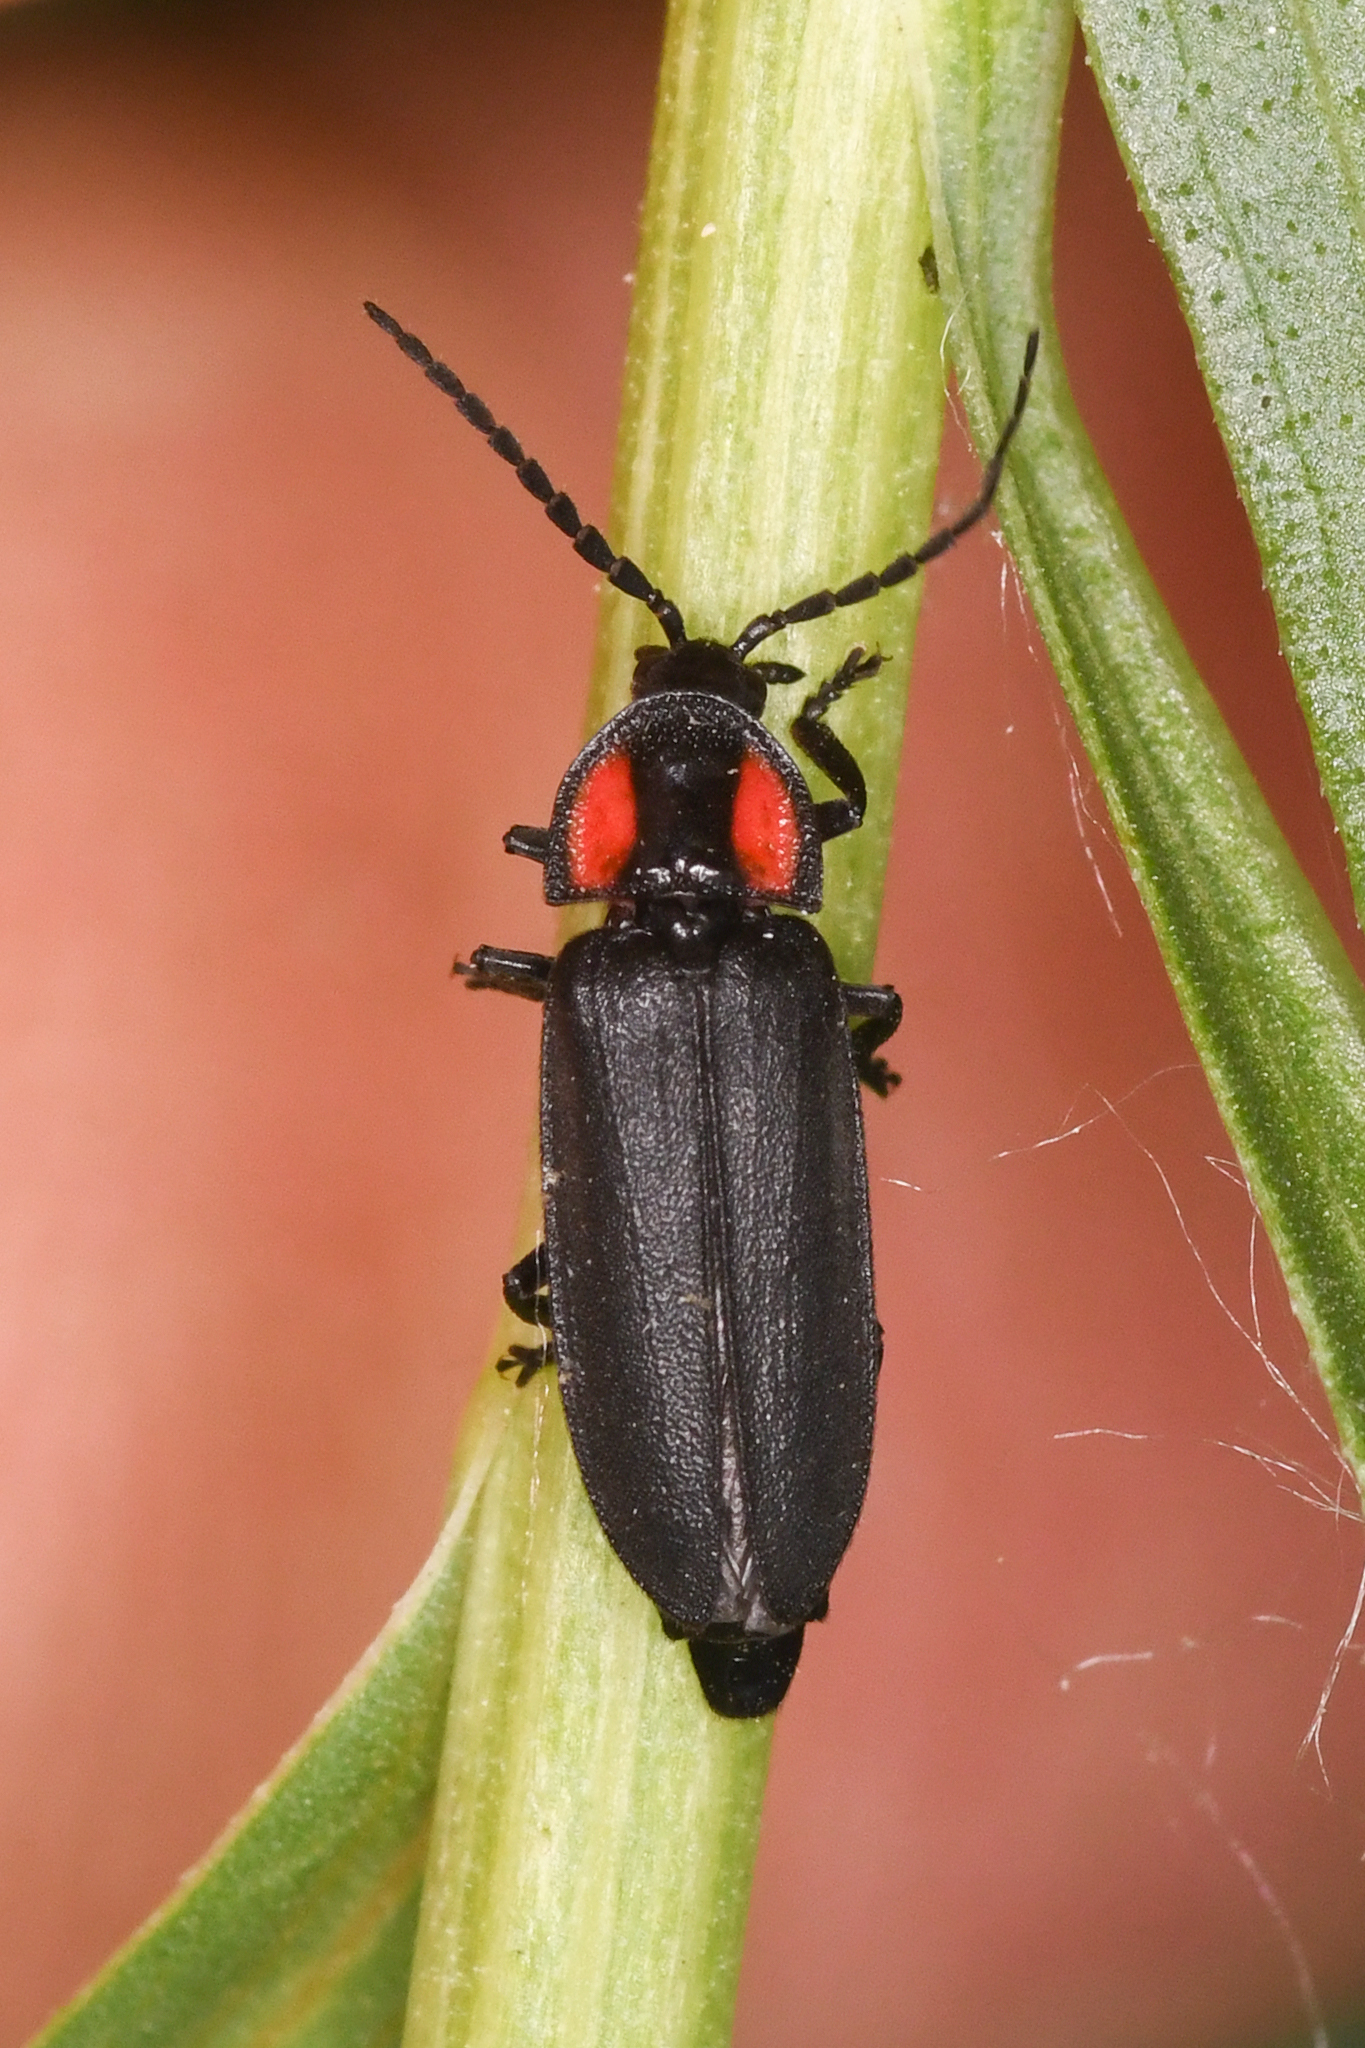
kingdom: Animalia
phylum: Arthropoda
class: Insecta
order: Coleoptera
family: Lampyridae
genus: Pyropyga
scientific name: Pyropyga nigricans
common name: Dark firefly
